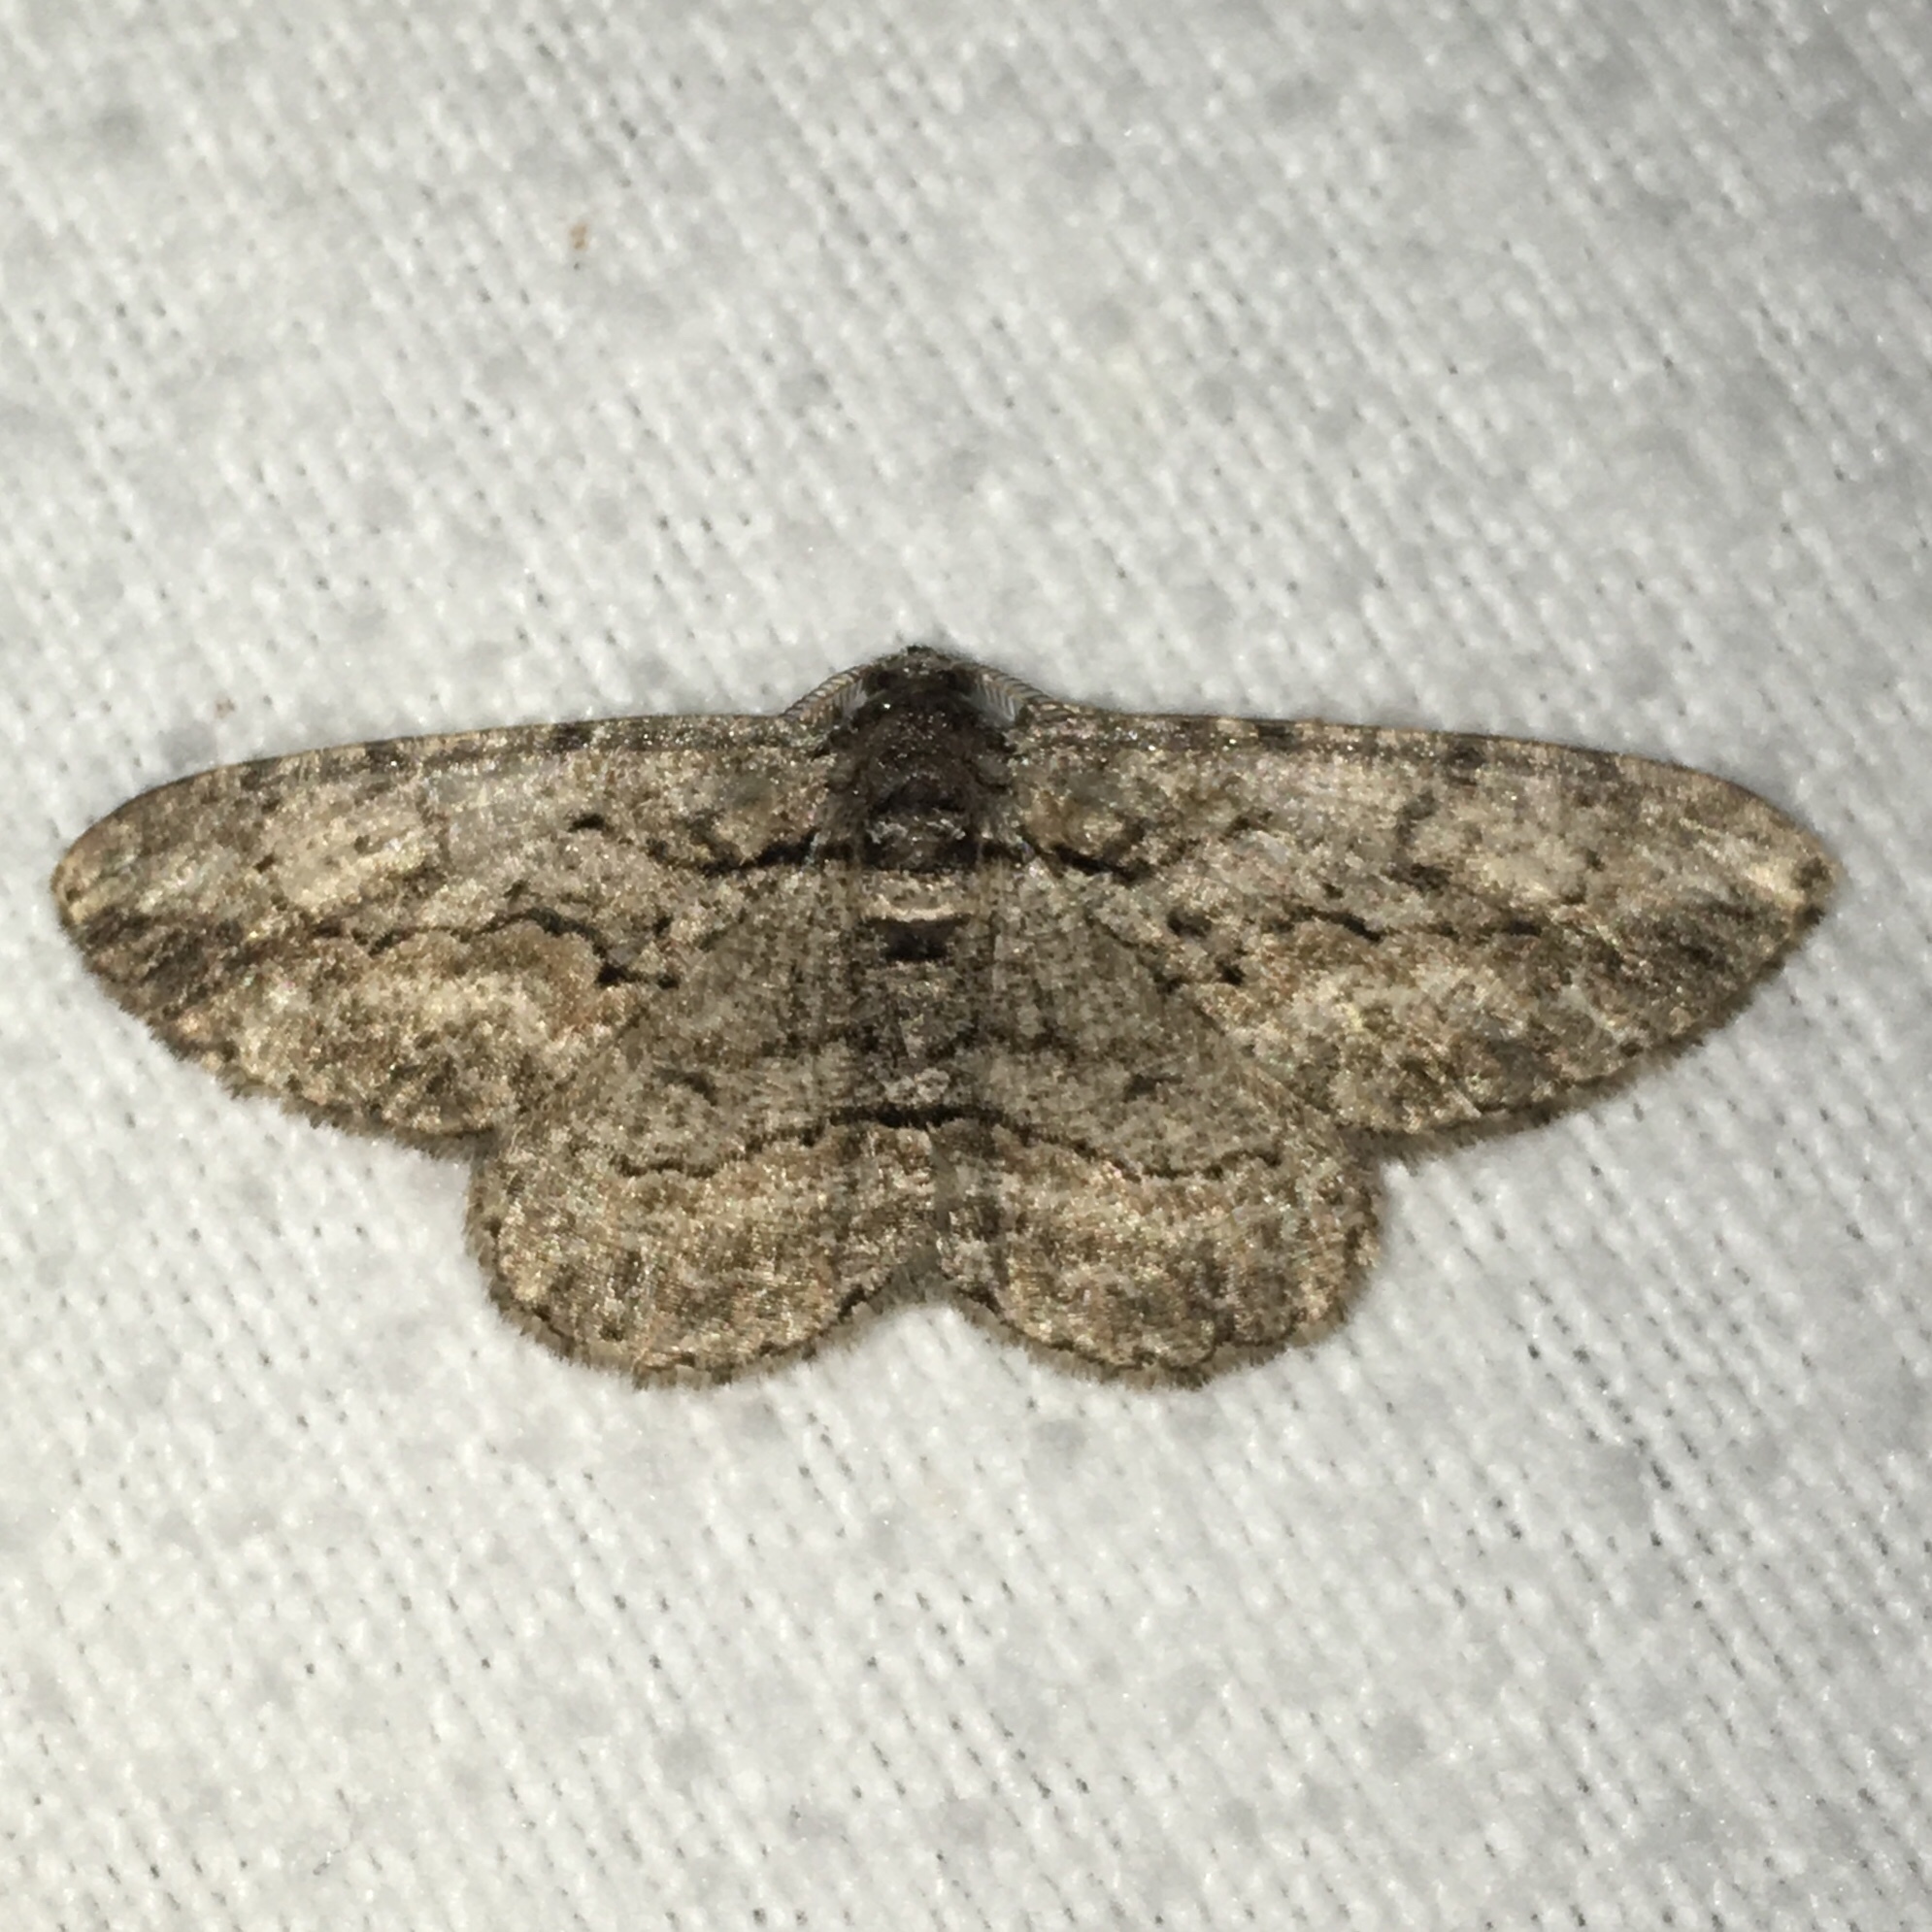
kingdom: Animalia
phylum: Arthropoda
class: Insecta
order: Lepidoptera
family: Geometridae
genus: Anavitrinella
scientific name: Anavitrinella pampinaria
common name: Common gray
